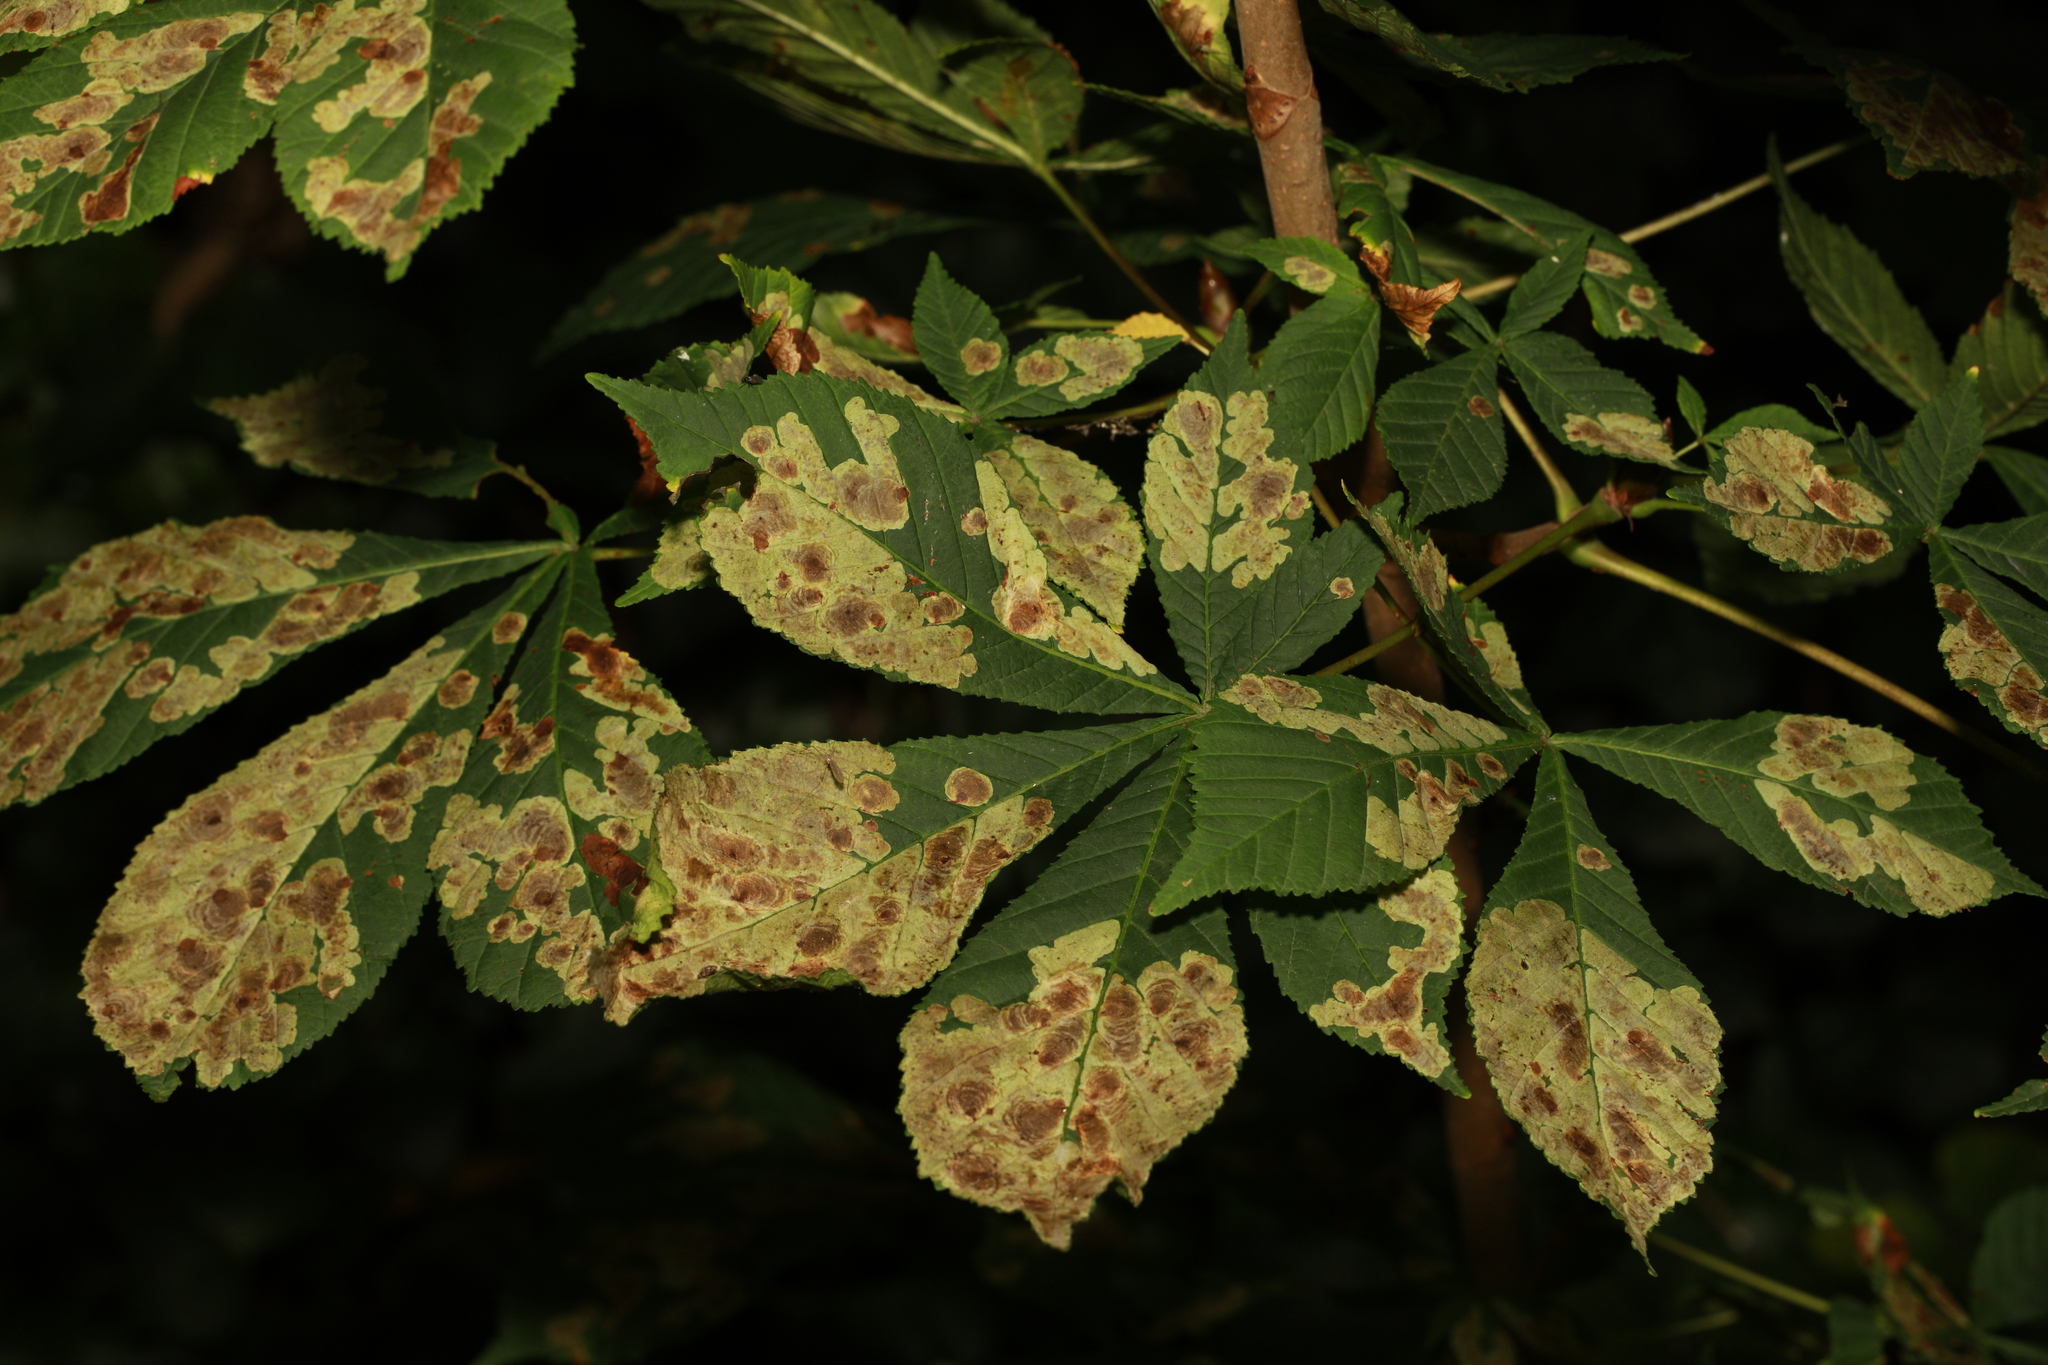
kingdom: Plantae
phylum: Tracheophyta
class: Magnoliopsida
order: Sapindales
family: Sapindaceae
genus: Aesculus
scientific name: Aesculus hippocastanum
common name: Horse-chestnut
